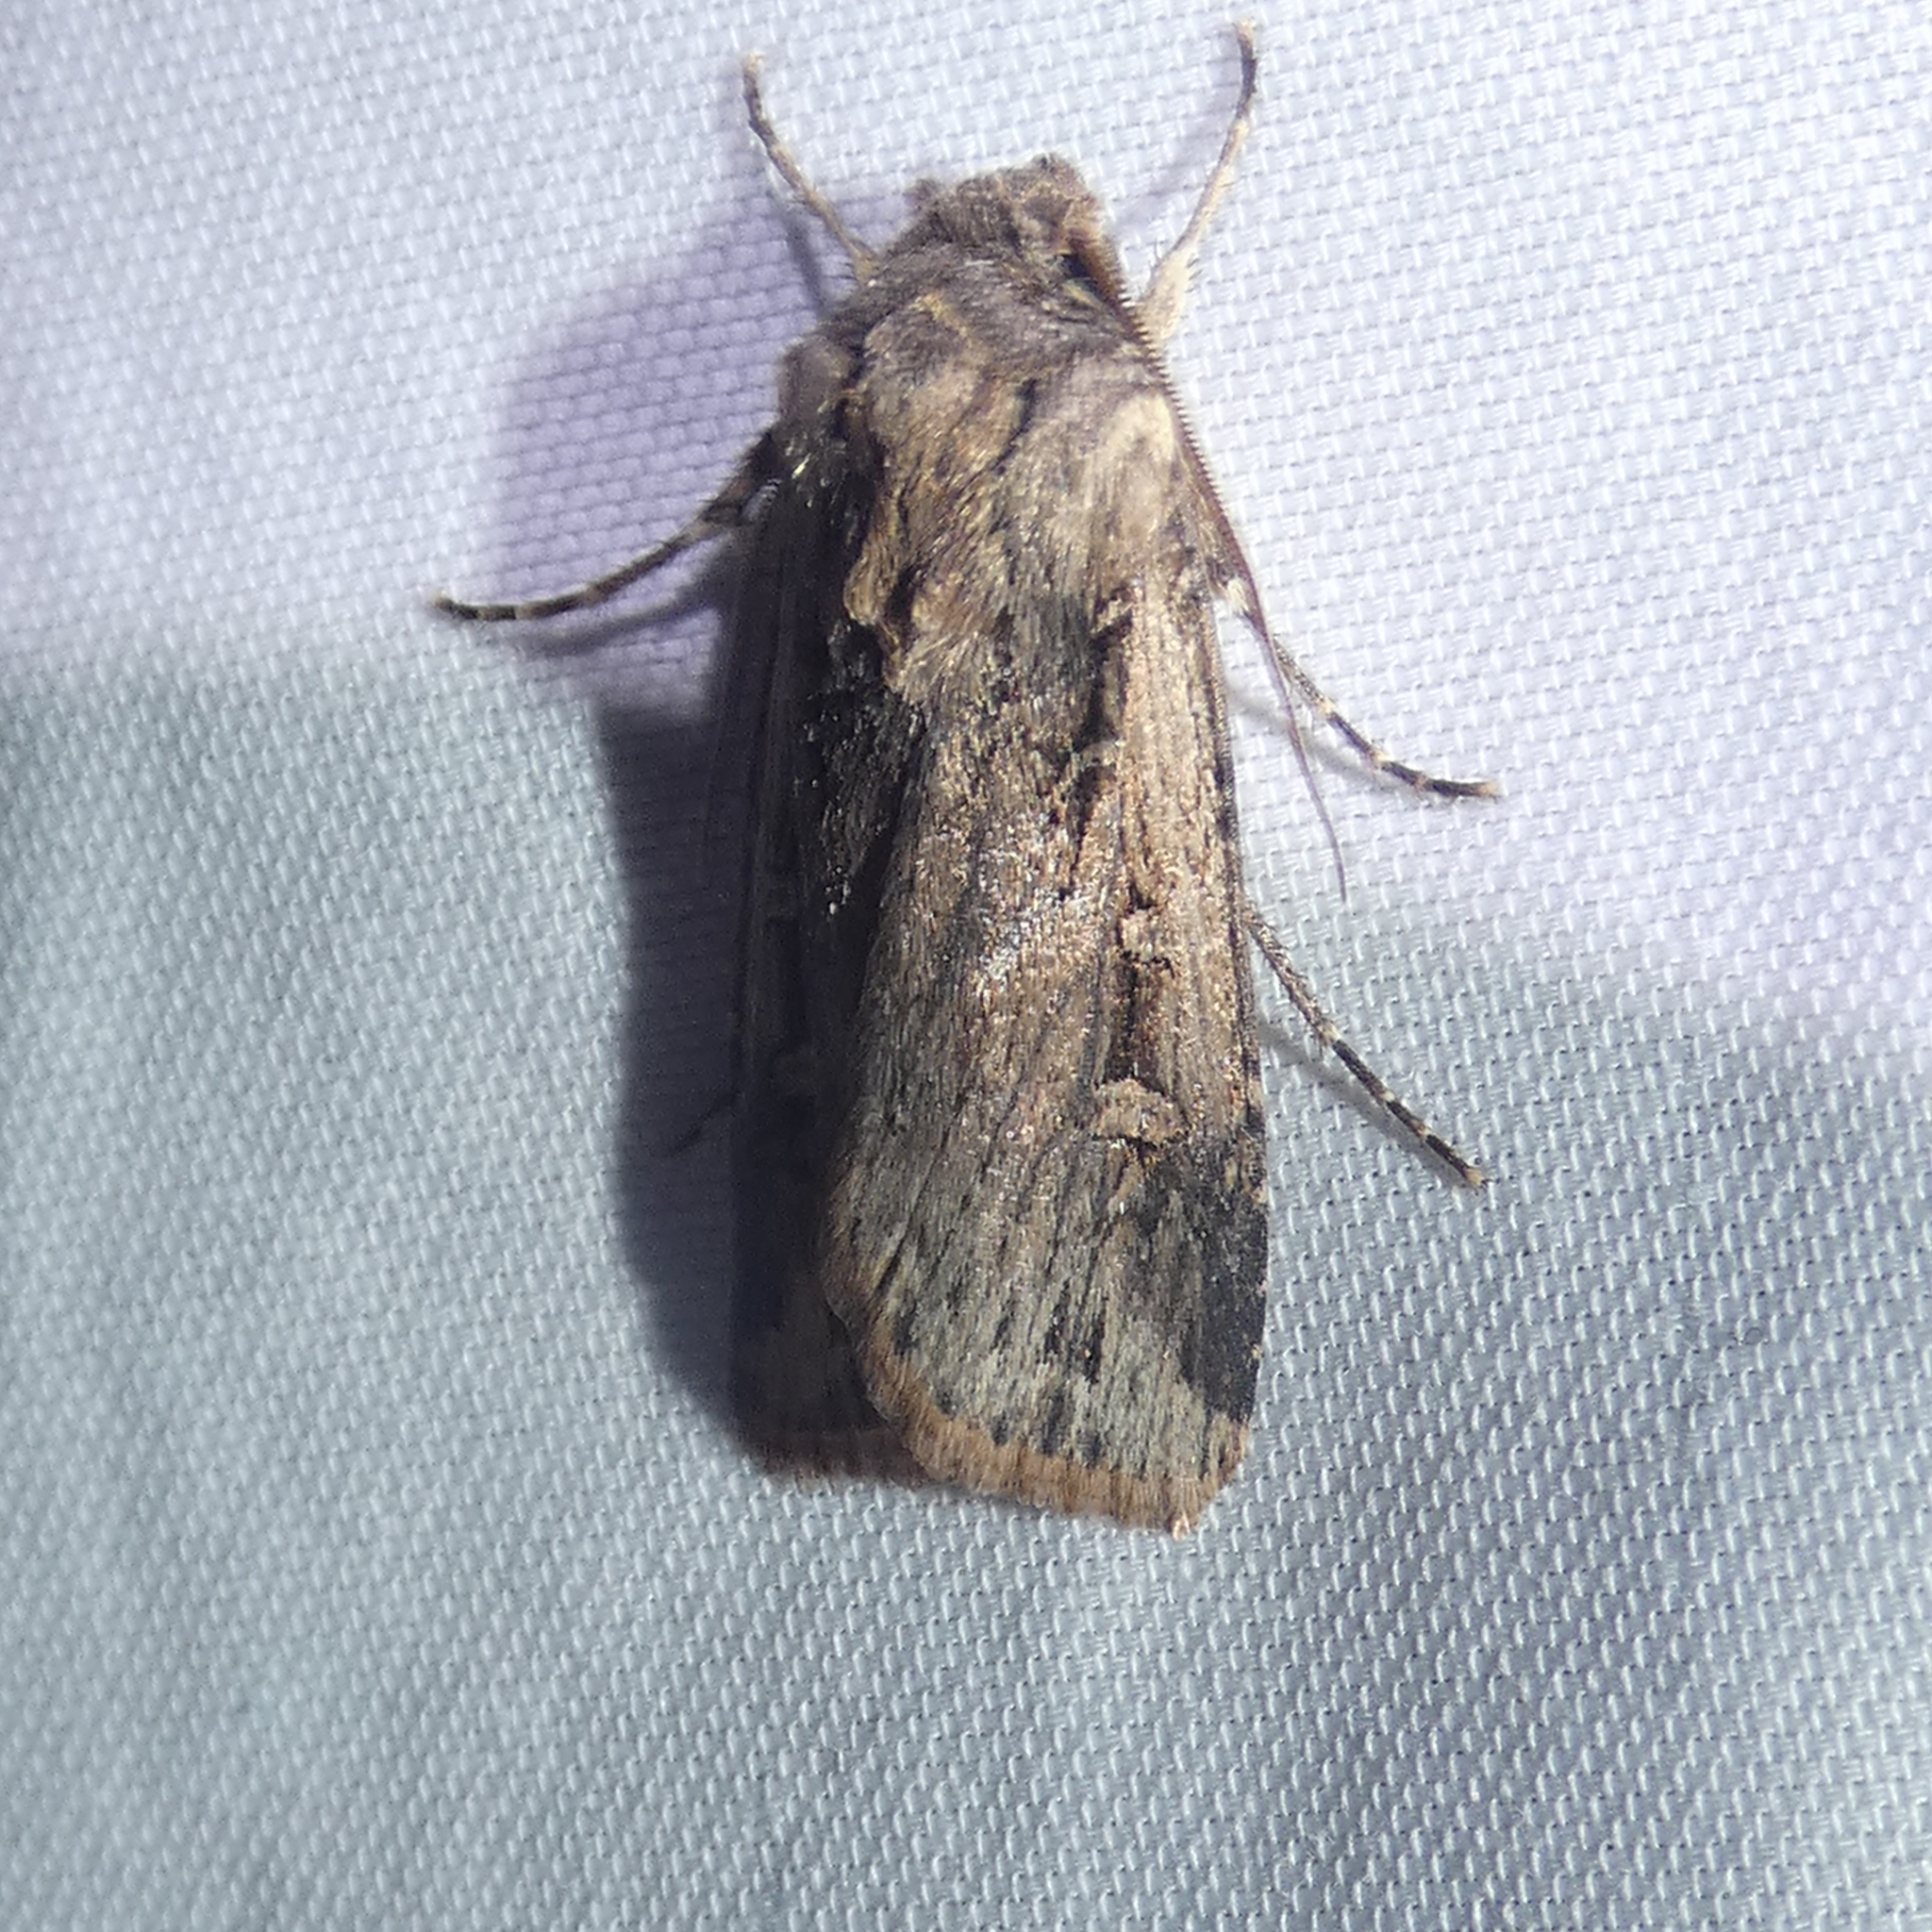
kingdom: Animalia
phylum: Arthropoda
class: Insecta
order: Lepidoptera
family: Noctuidae
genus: Feltia
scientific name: Feltia subterranea
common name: Granulate cutworm
